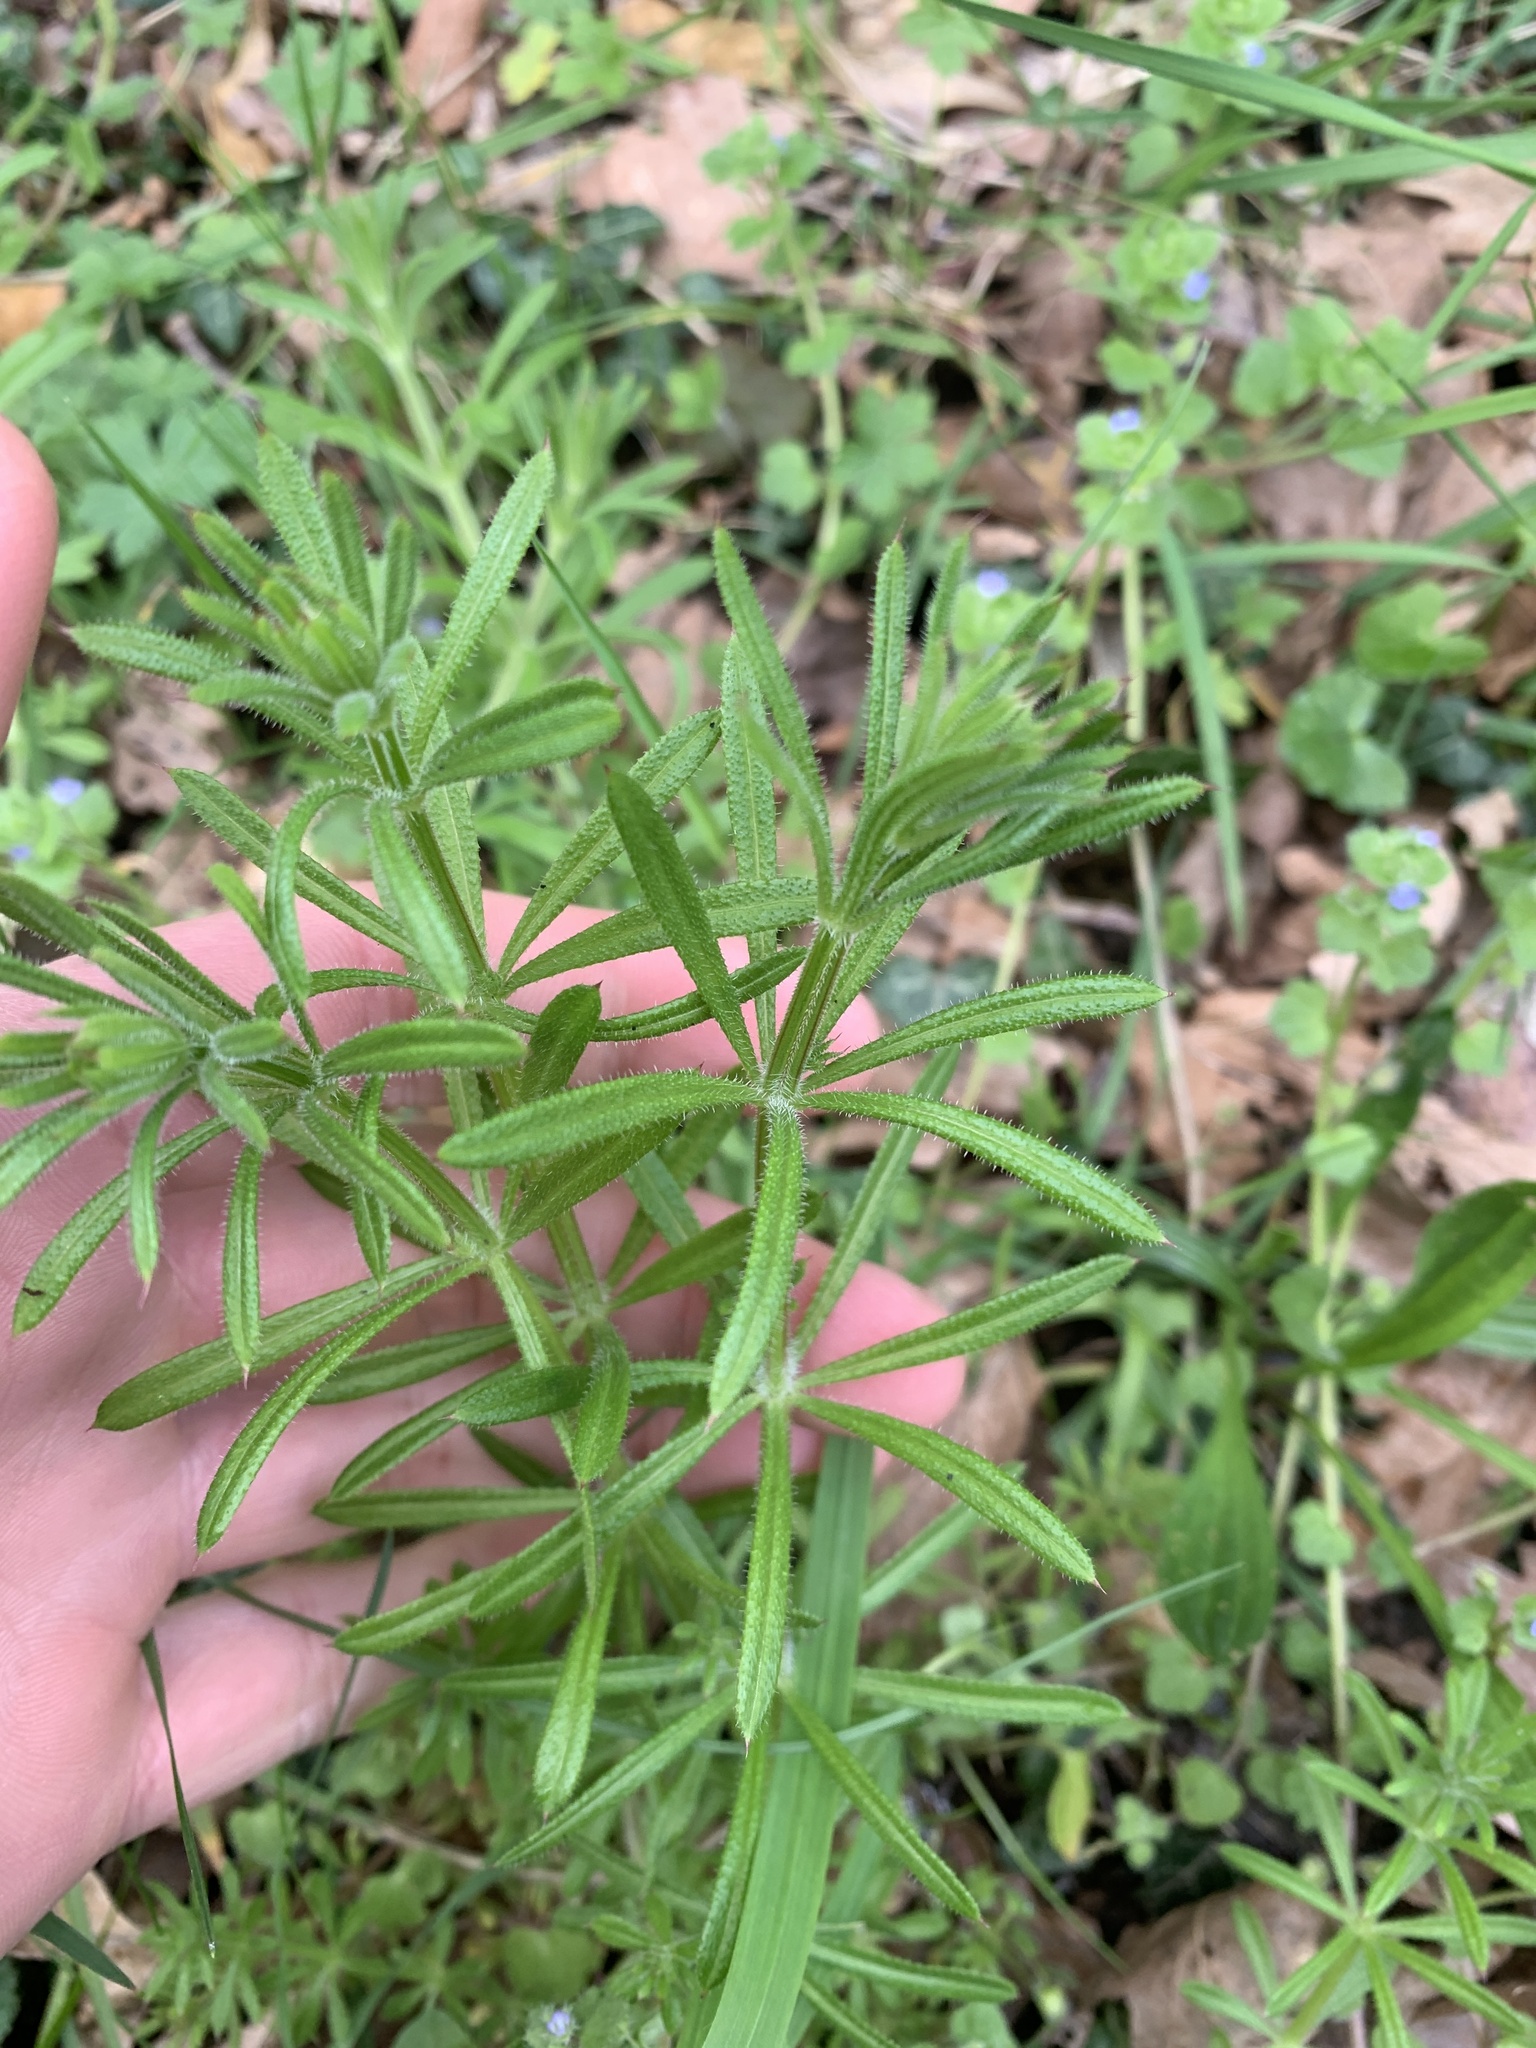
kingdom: Plantae
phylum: Tracheophyta
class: Magnoliopsida
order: Gentianales
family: Rubiaceae
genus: Galium
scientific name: Galium aparine
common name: Cleavers
